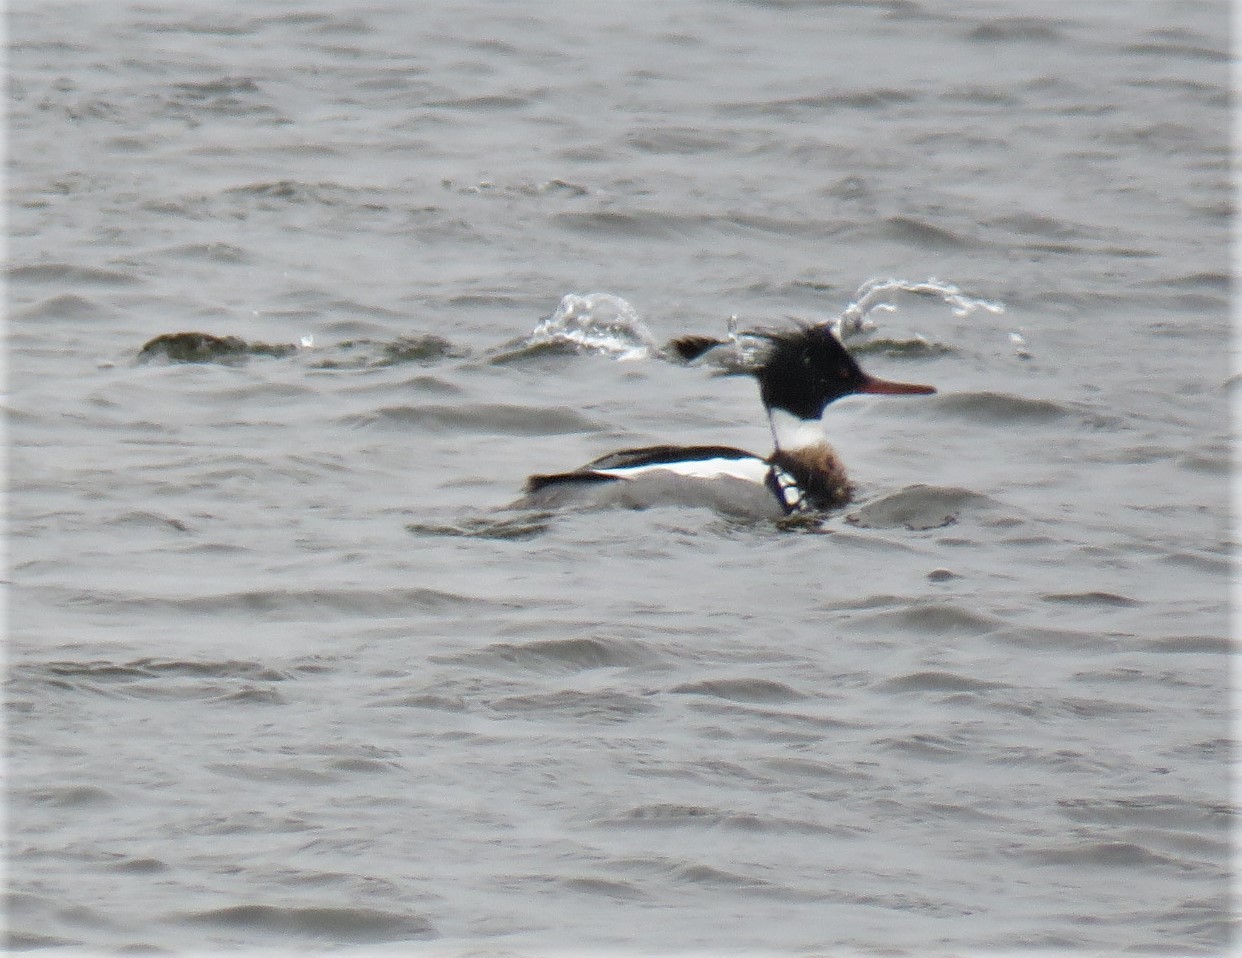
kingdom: Animalia
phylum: Chordata
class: Aves
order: Anseriformes
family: Anatidae
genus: Mergus
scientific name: Mergus serrator
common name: Red-breasted merganser
